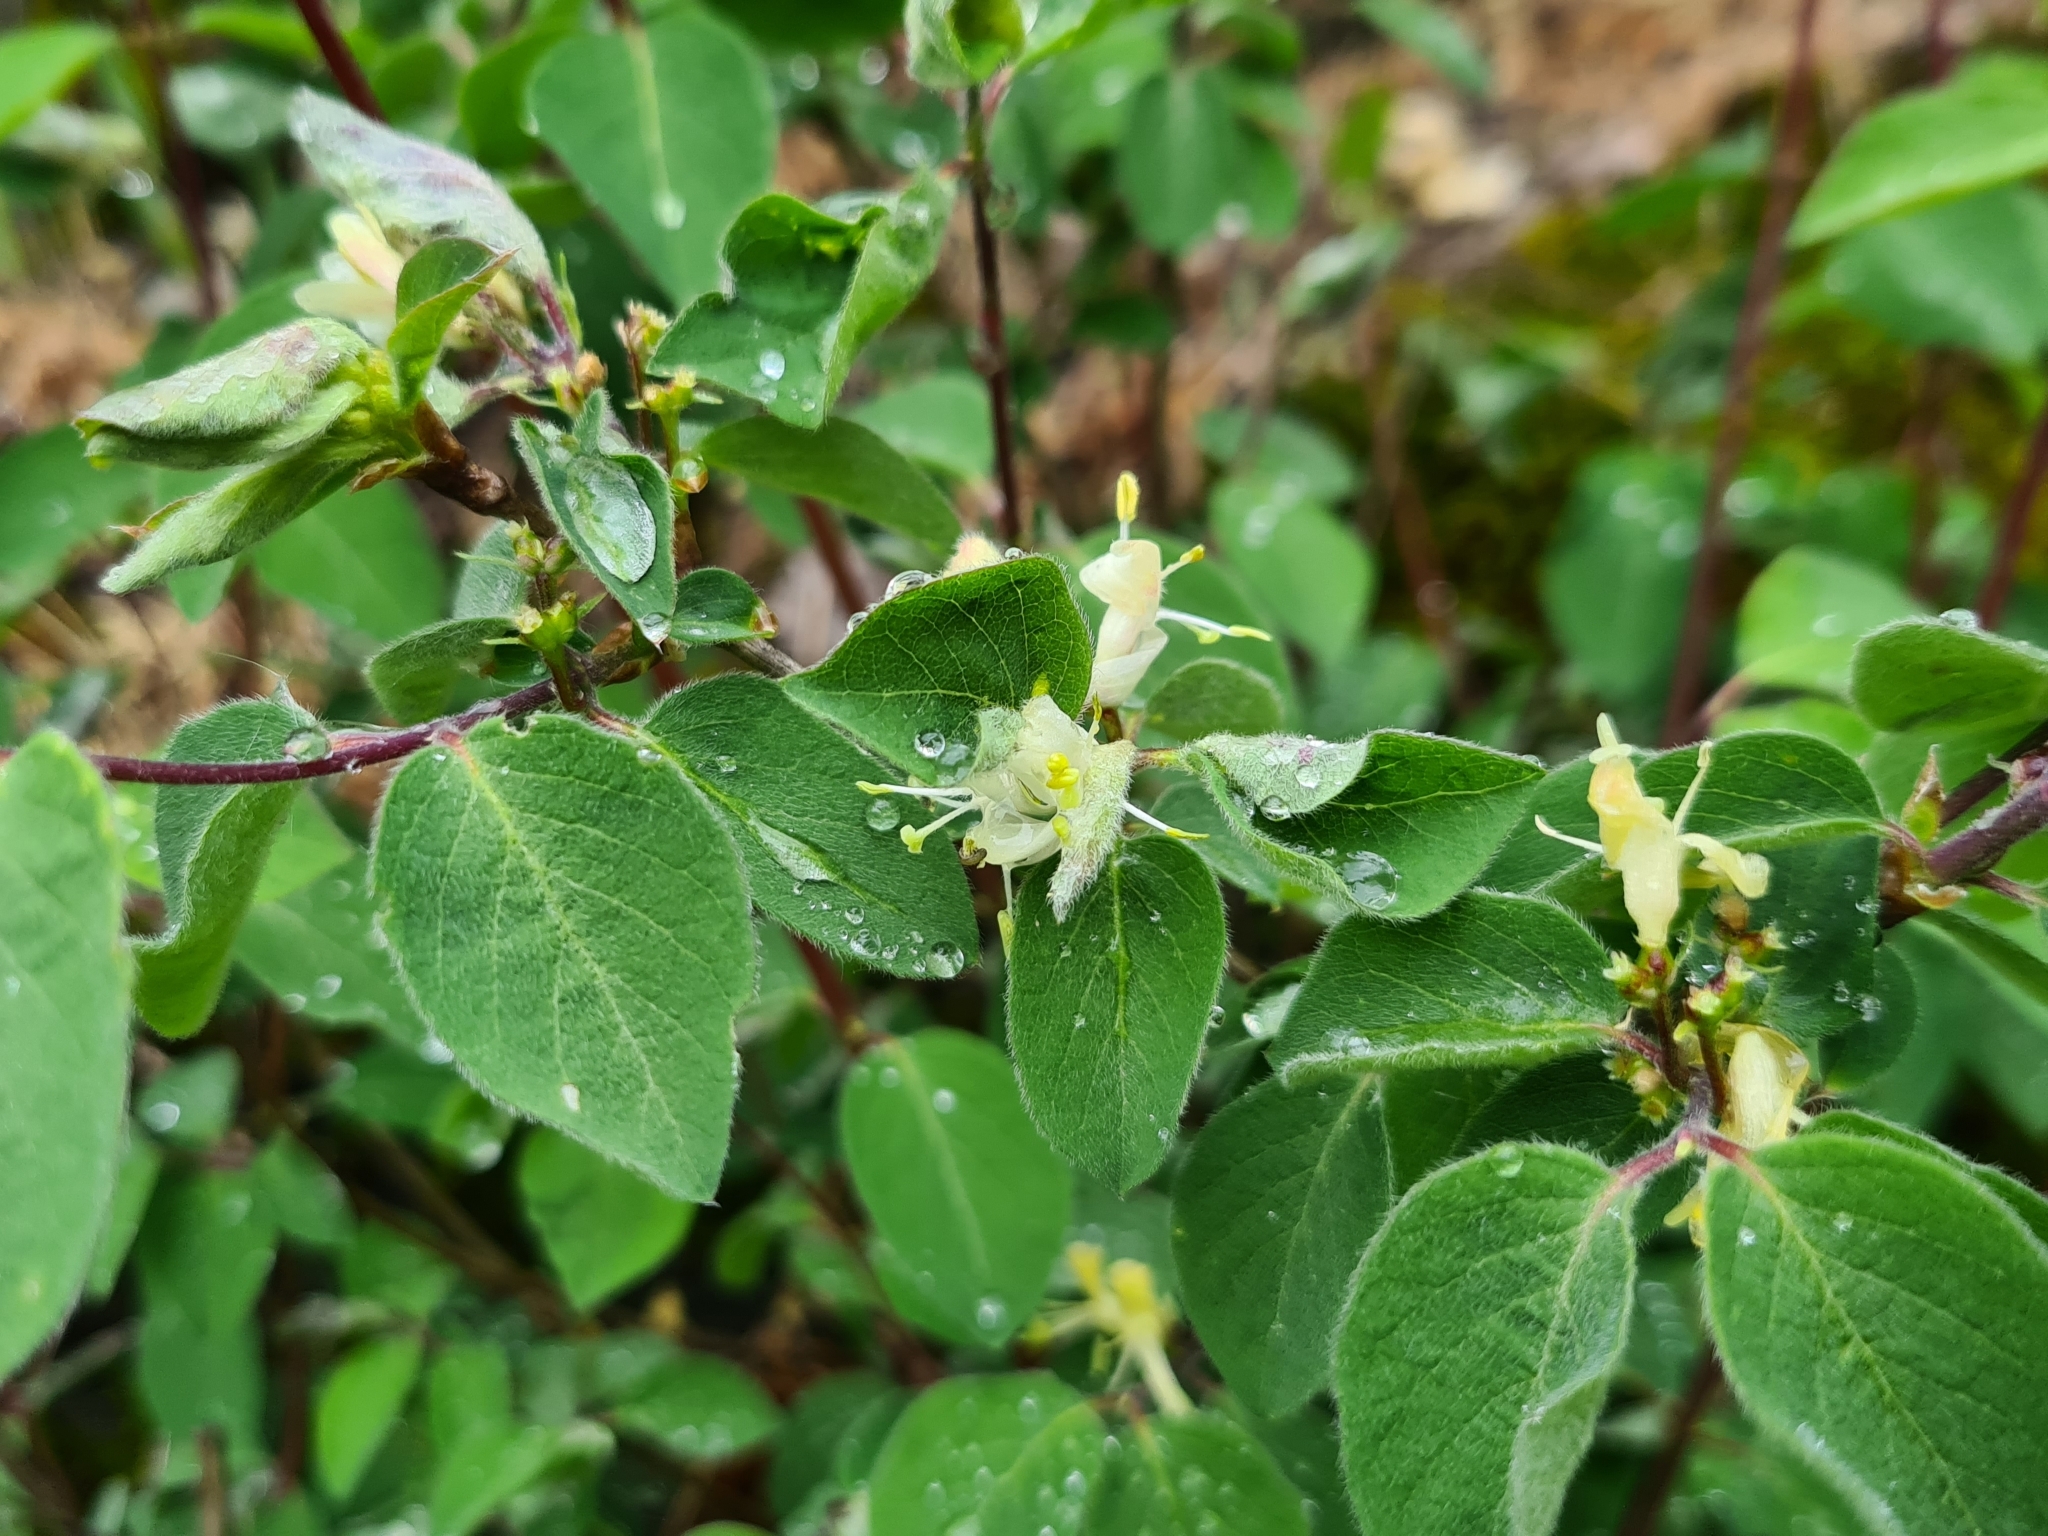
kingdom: Plantae
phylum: Tracheophyta
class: Magnoliopsida
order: Dipsacales
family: Caprifoliaceae
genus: Lonicera
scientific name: Lonicera xylosteum
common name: Fly honeysuckle
